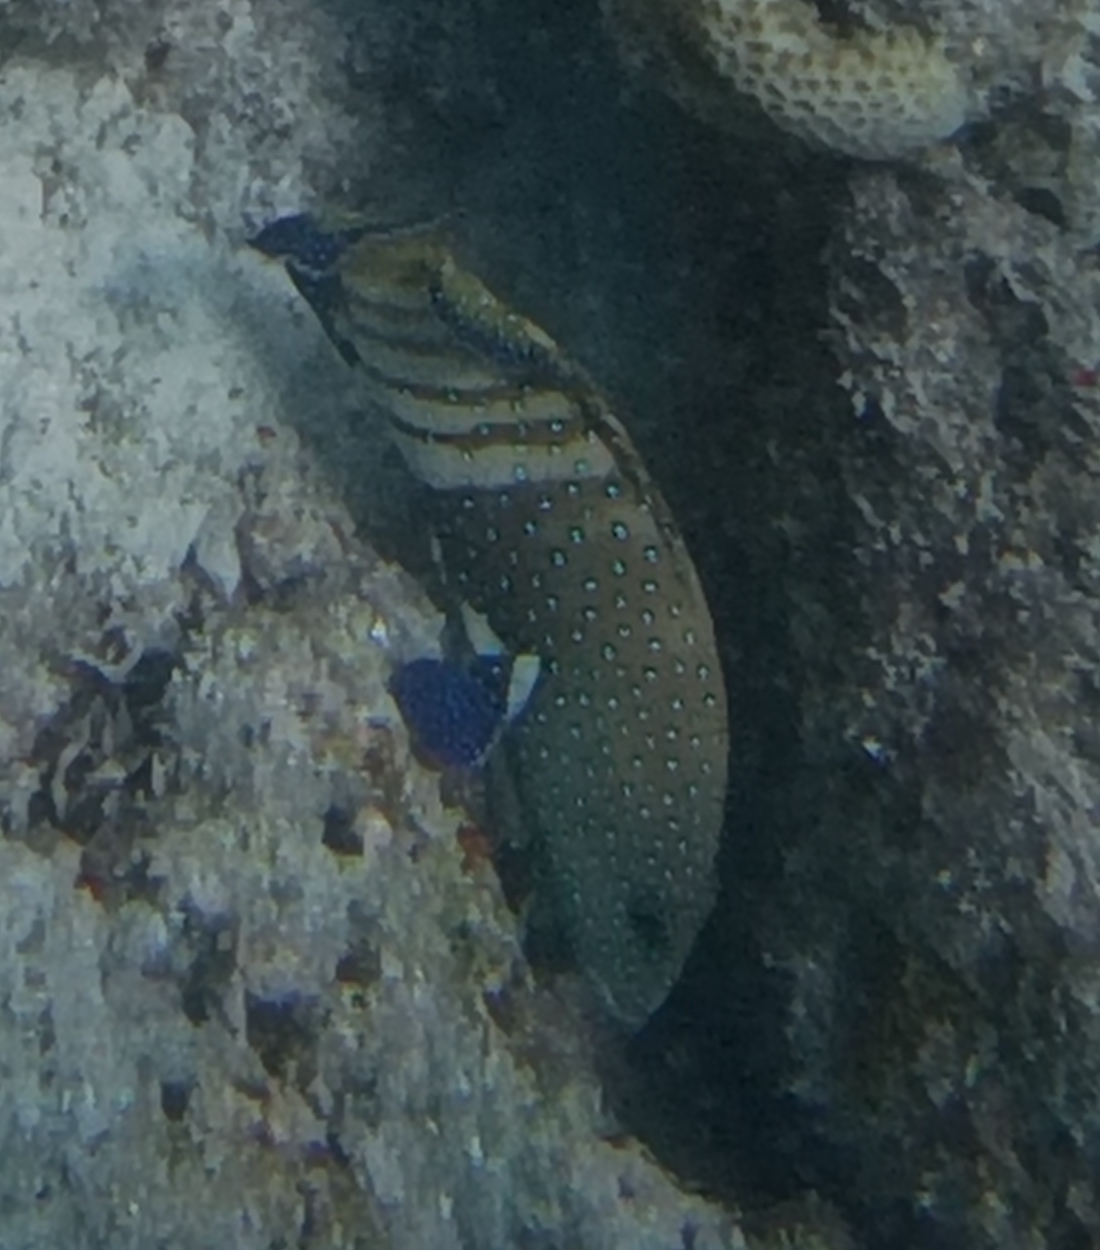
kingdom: Animalia
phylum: Chordata
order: Perciformes
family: Serranidae
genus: Cephalopholis
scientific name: Cephalopholis argus
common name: Peacock grouper
